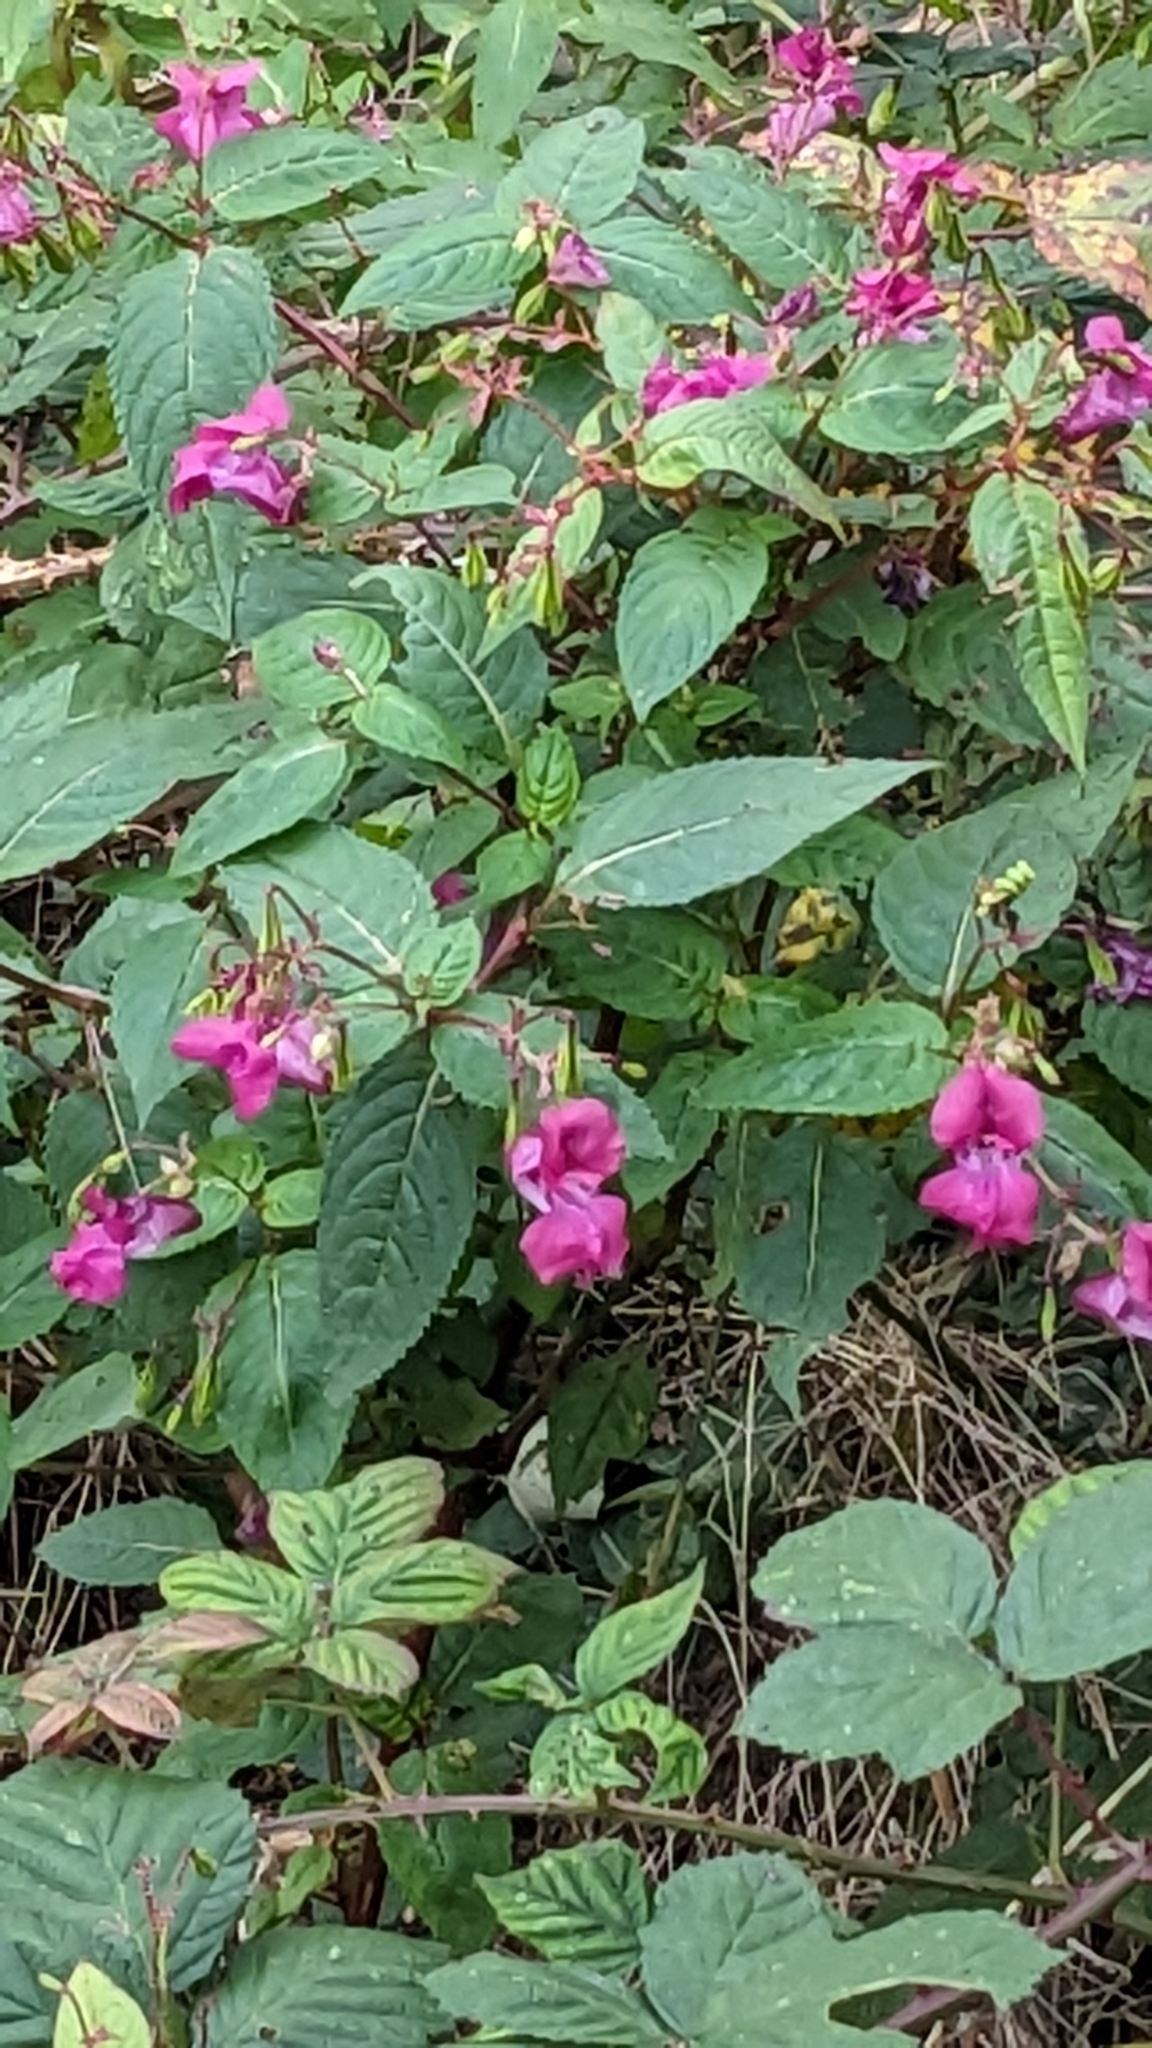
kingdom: Plantae
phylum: Tracheophyta
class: Magnoliopsida
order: Ericales
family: Balsaminaceae
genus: Impatiens
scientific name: Impatiens glandulifera
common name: Himalayan balsam
